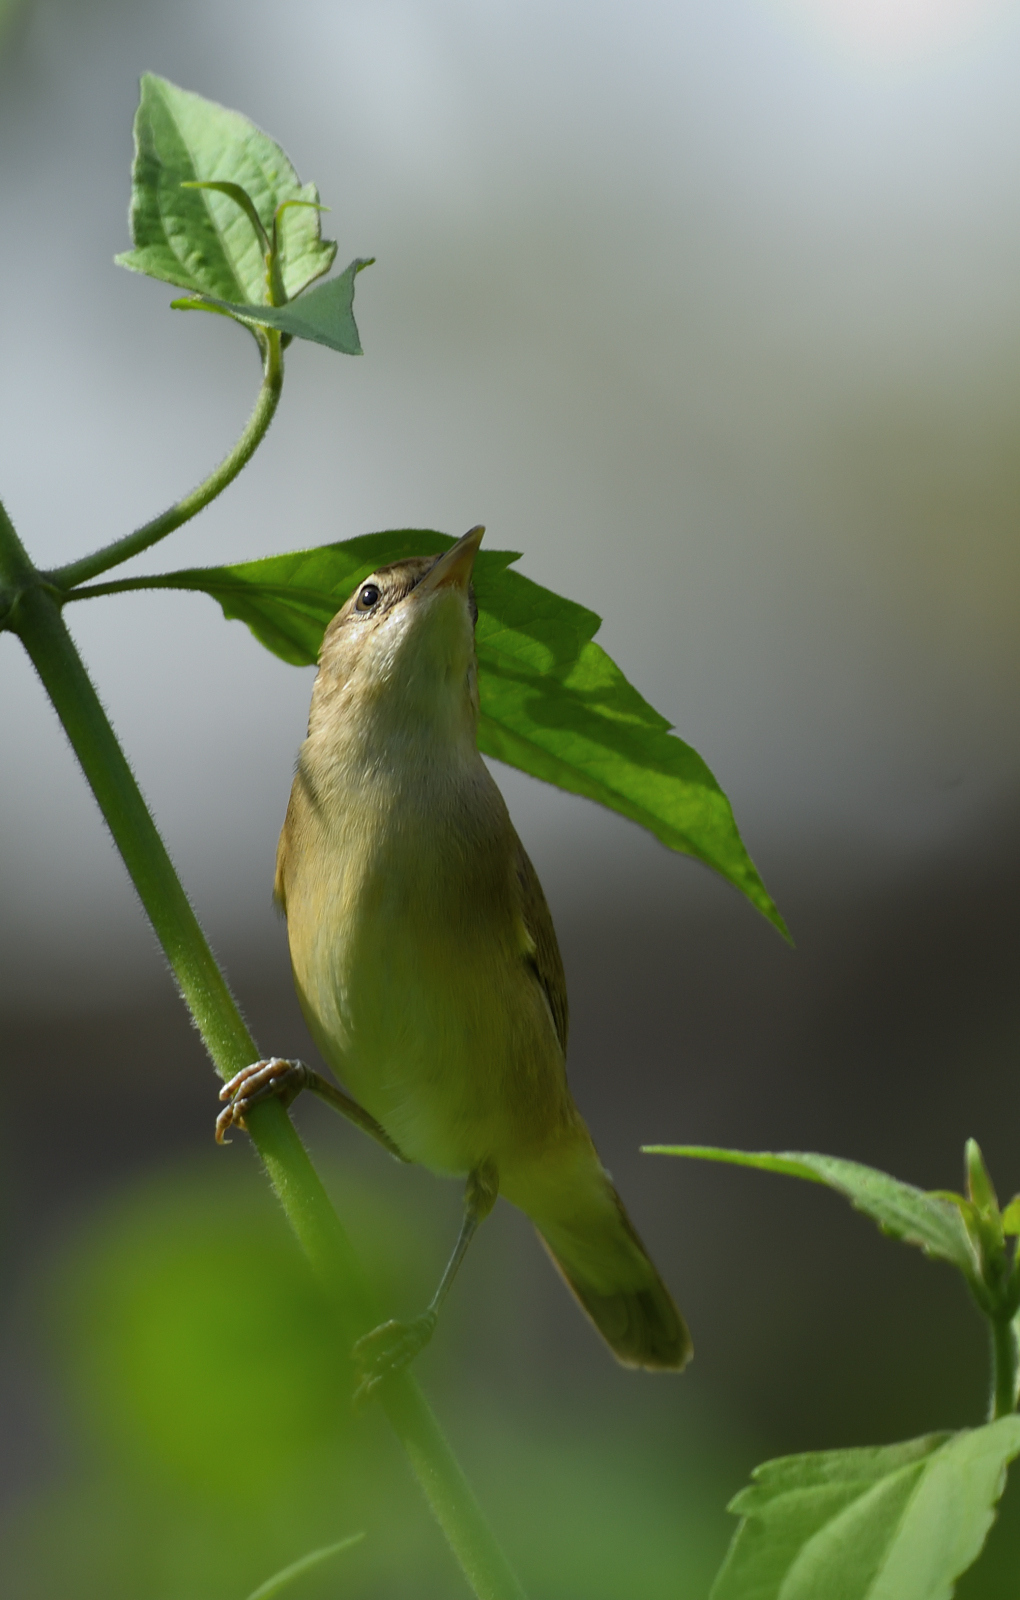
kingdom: Animalia
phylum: Chordata
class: Aves
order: Passeriformes
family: Acrocephalidae
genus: Acrocephalus
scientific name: Acrocephalus dumetorum
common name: Blyth's reed warbler
